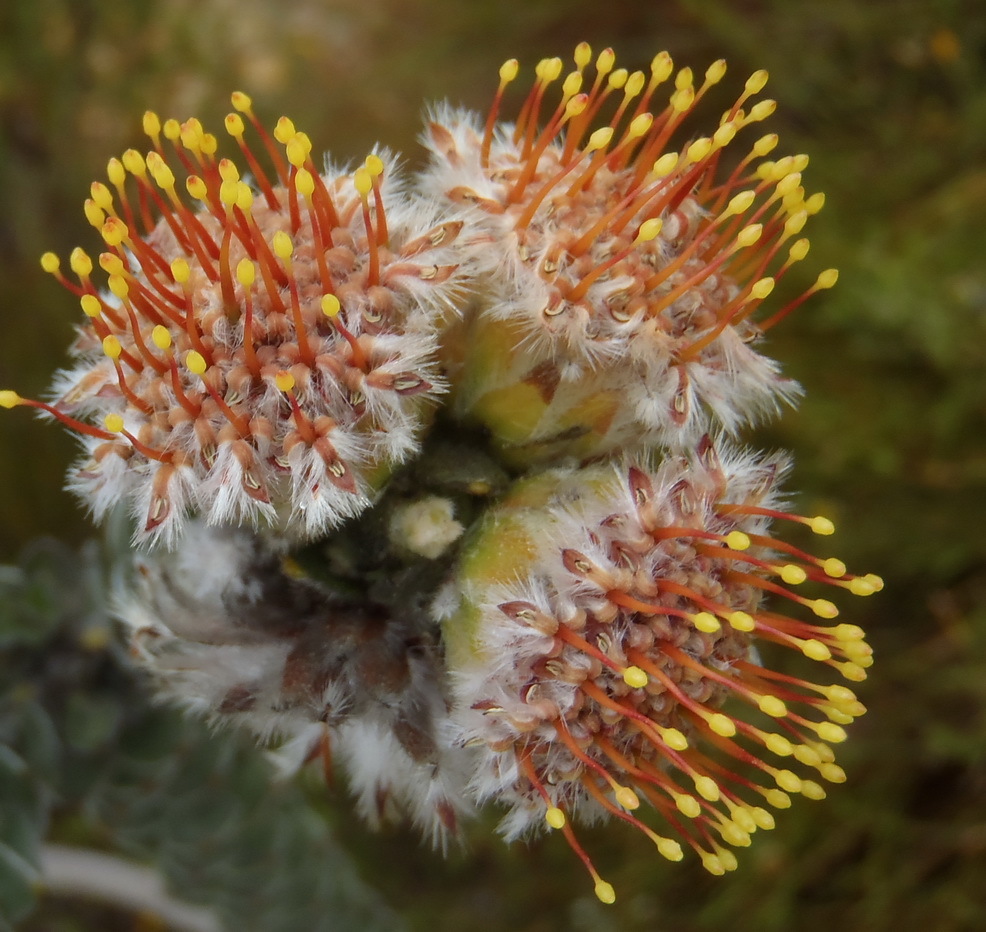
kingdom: Plantae
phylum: Tracheophyta
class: Magnoliopsida
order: Proteales
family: Proteaceae
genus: Leucospermum
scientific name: Leucospermum truncatulum
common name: Oval-leaf pincushion
